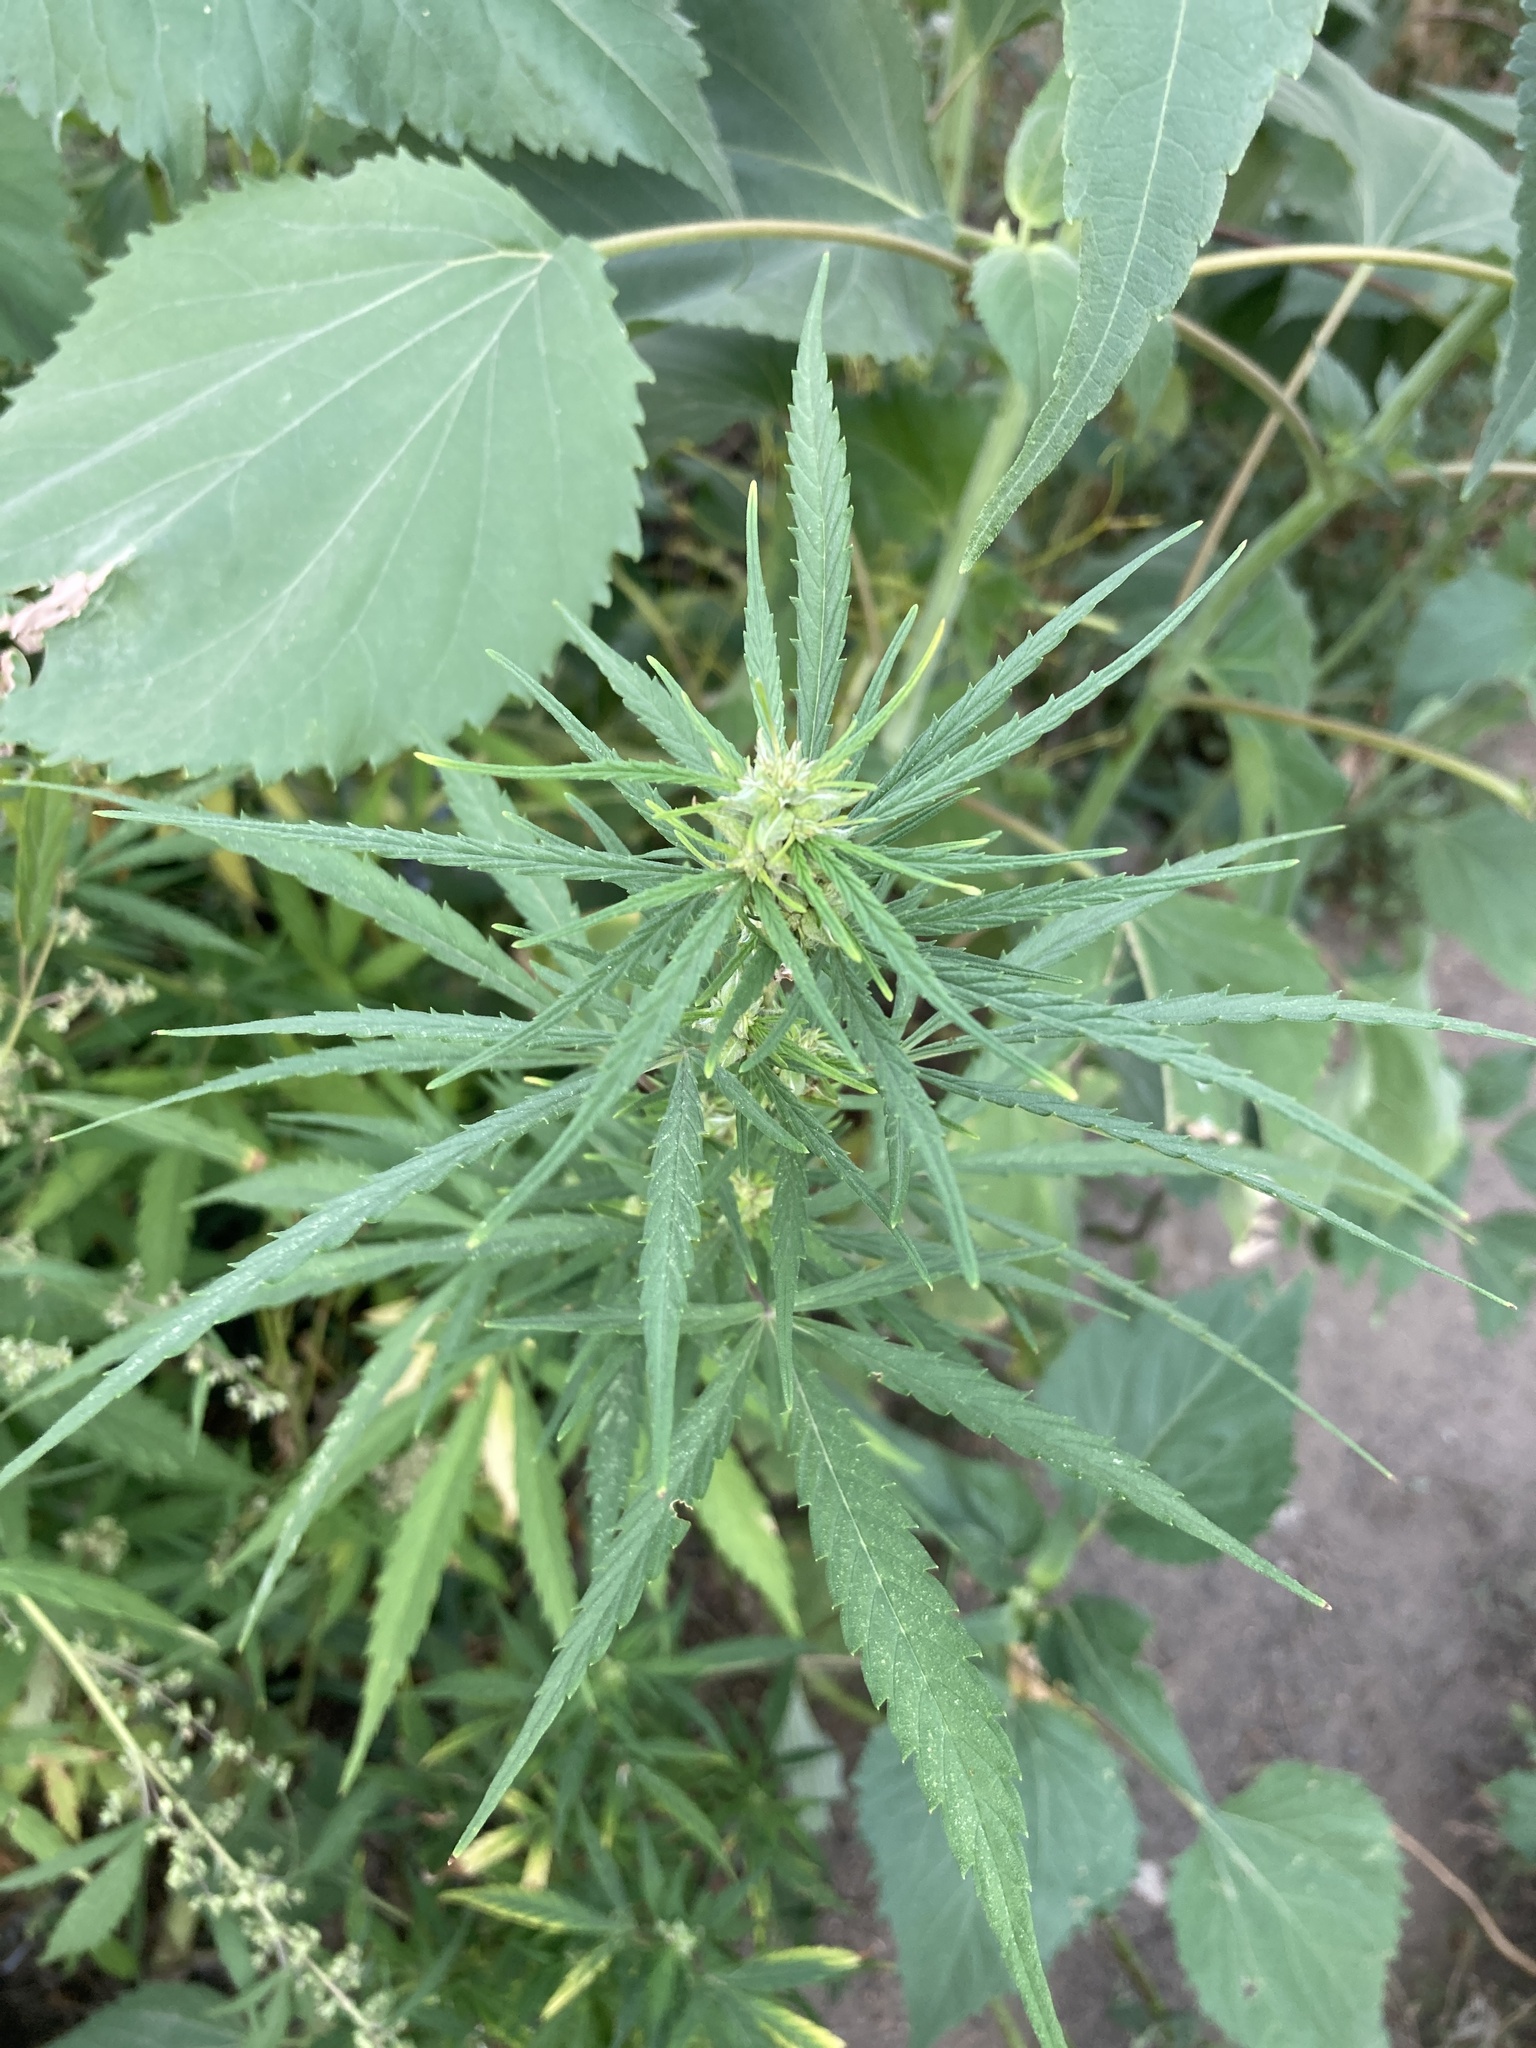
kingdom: Plantae
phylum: Tracheophyta
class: Magnoliopsida
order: Rosales
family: Cannabaceae
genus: Cannabis
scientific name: Cannabis sativa
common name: Hemp
